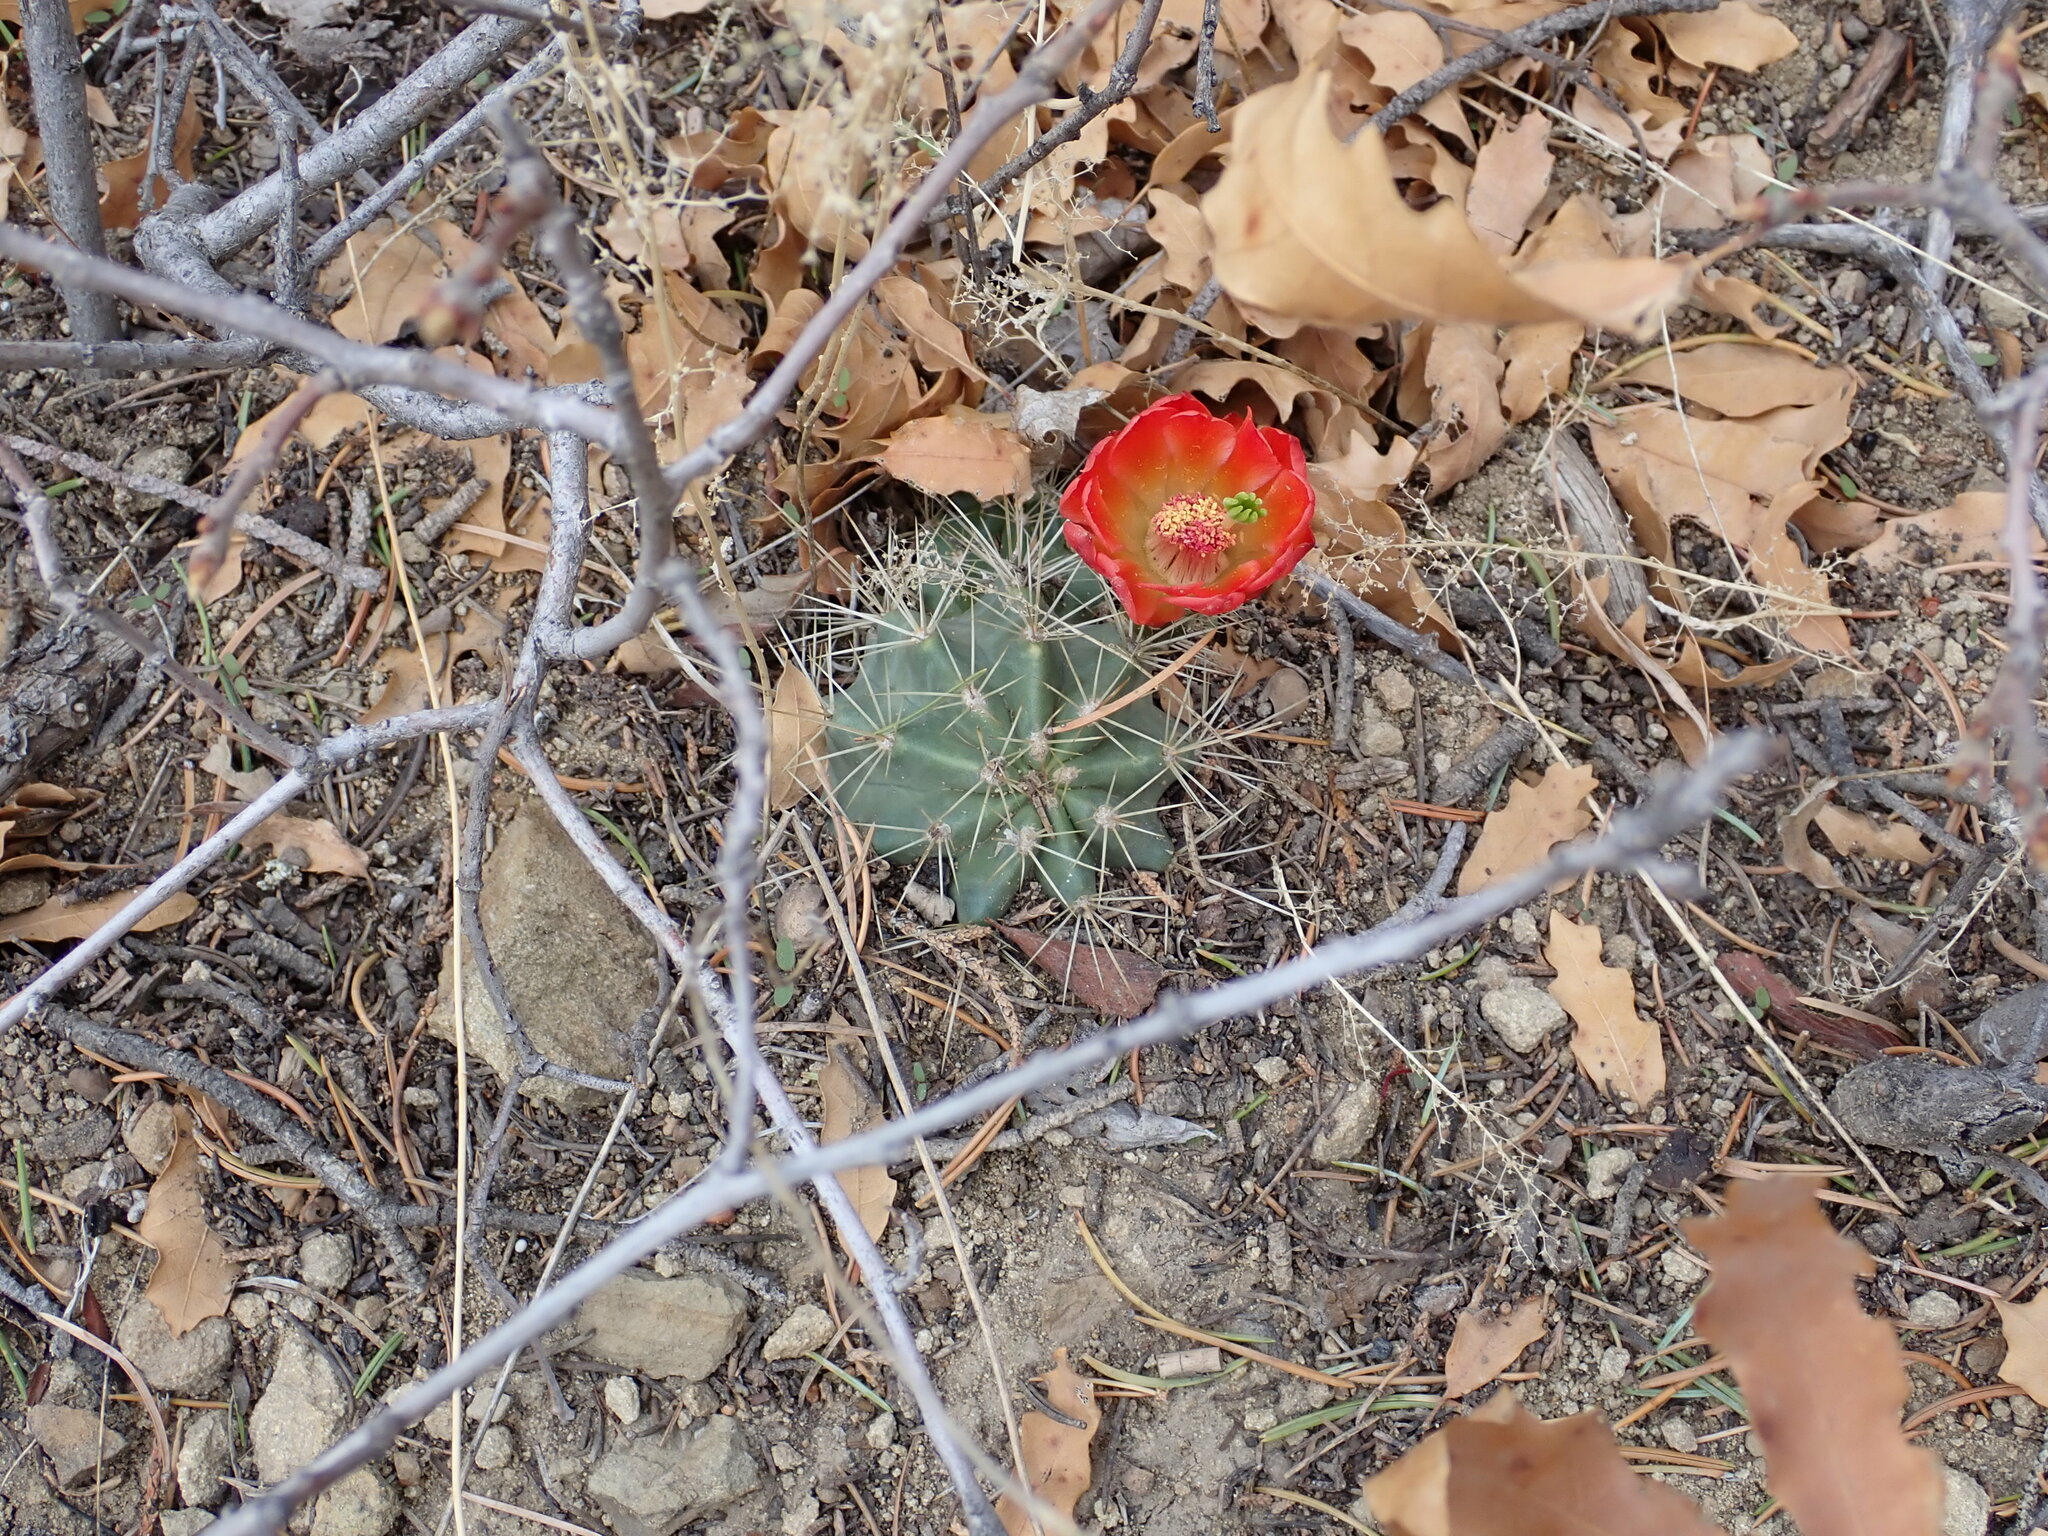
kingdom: Plantae
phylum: Tracheophyta
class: Magnoliopsida
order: Caryophyllales
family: Cactaceae
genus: Echinocereus
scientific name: Echinocereus coccineus
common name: Scarlet hedgehog cactus
